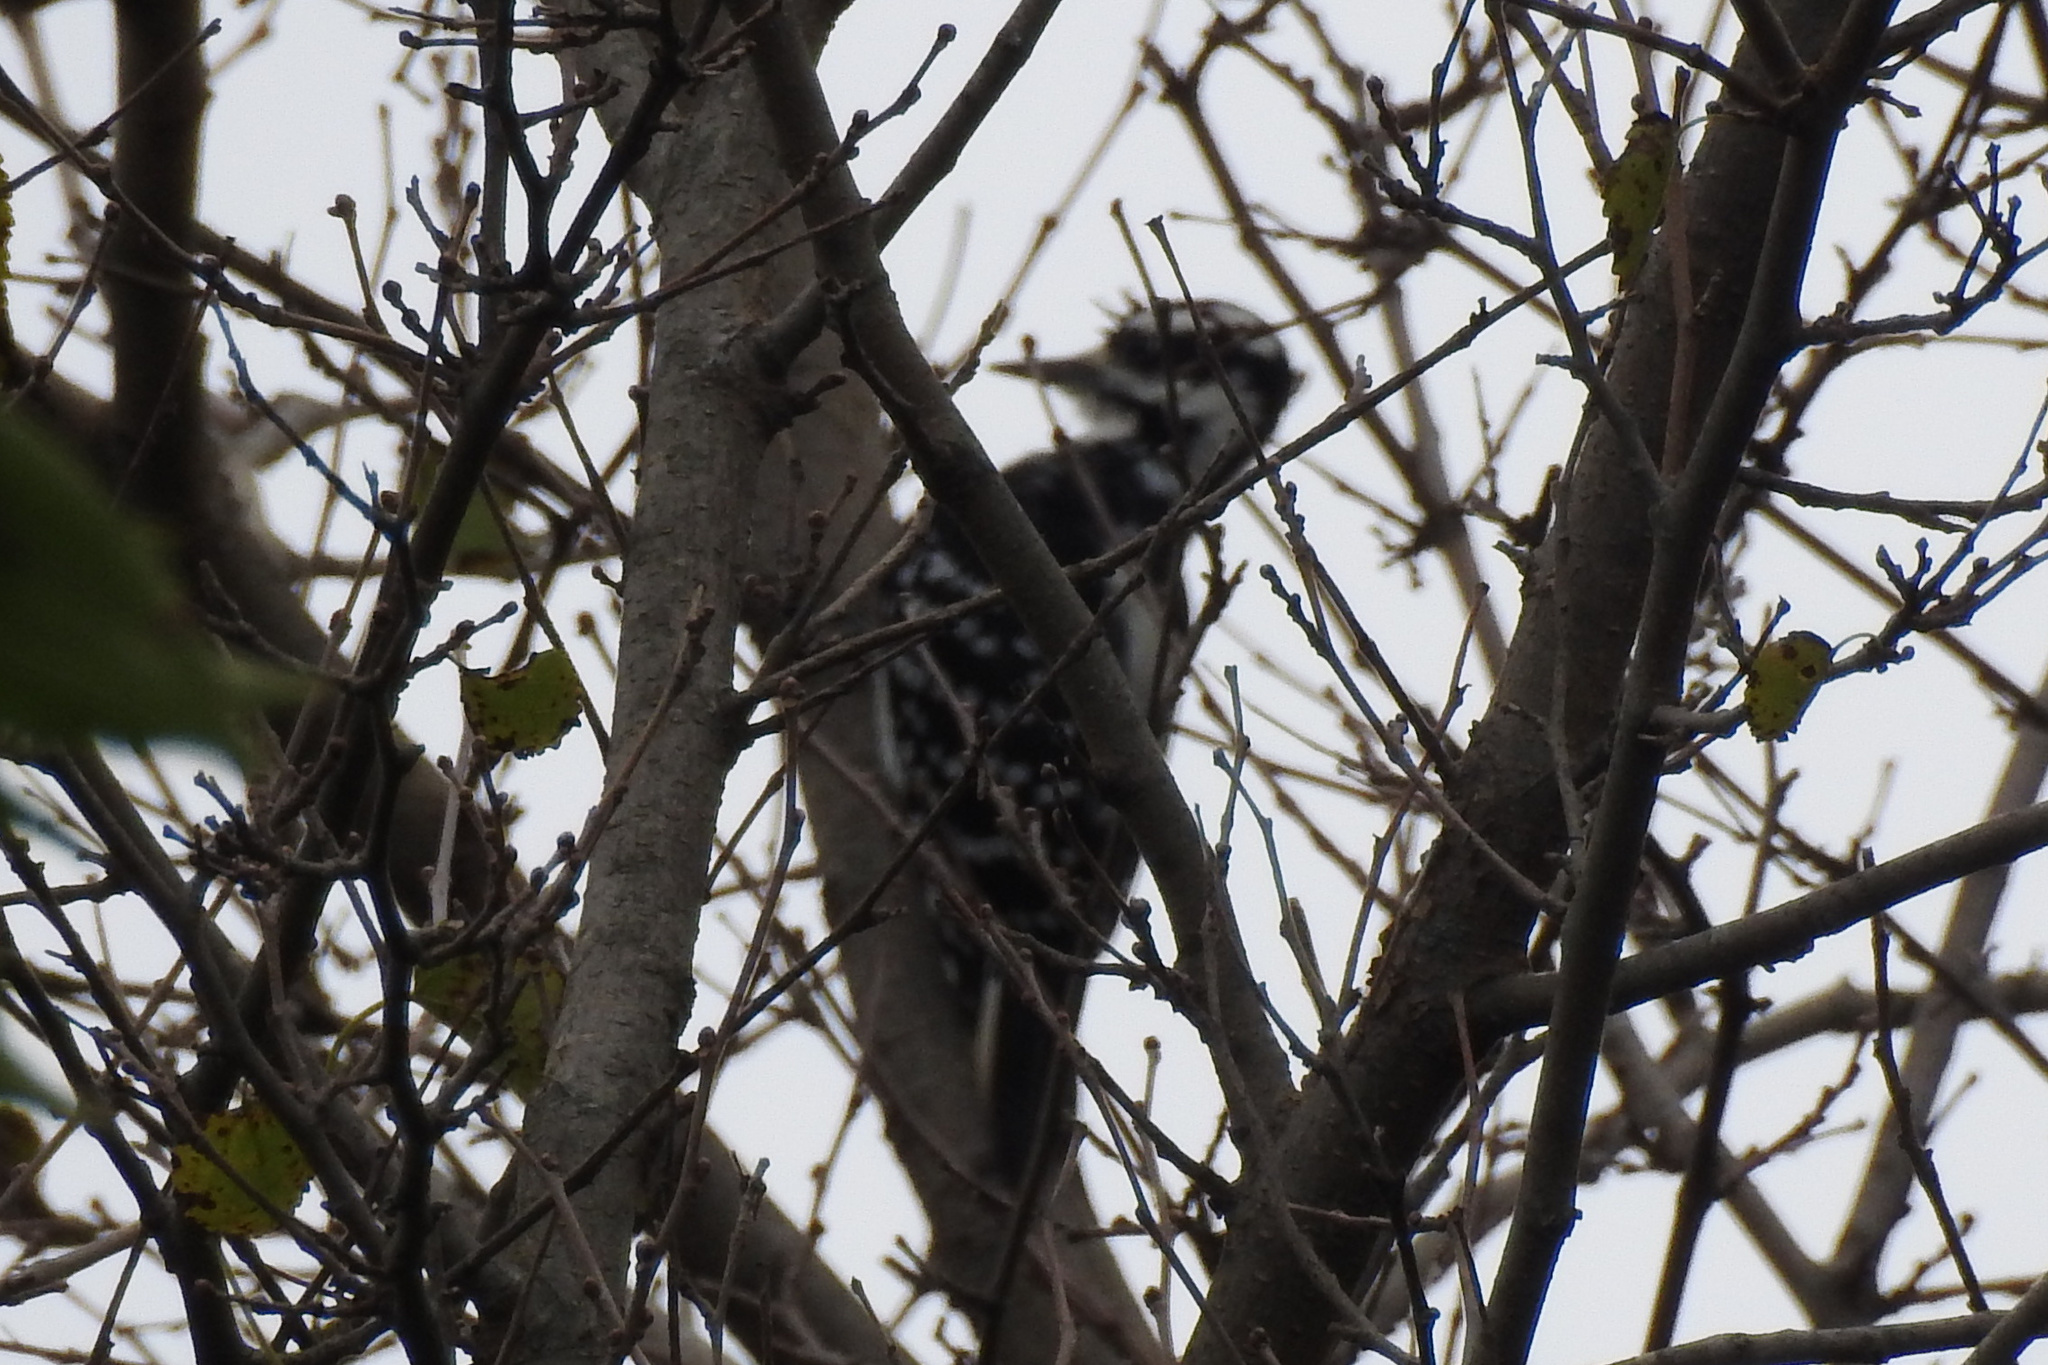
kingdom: Animalia
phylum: Chordata
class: Aves
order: Piciformes
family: Picidae
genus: Leuconotopicus
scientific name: Leuconotopicus villosus
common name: Hairy woodpecker
